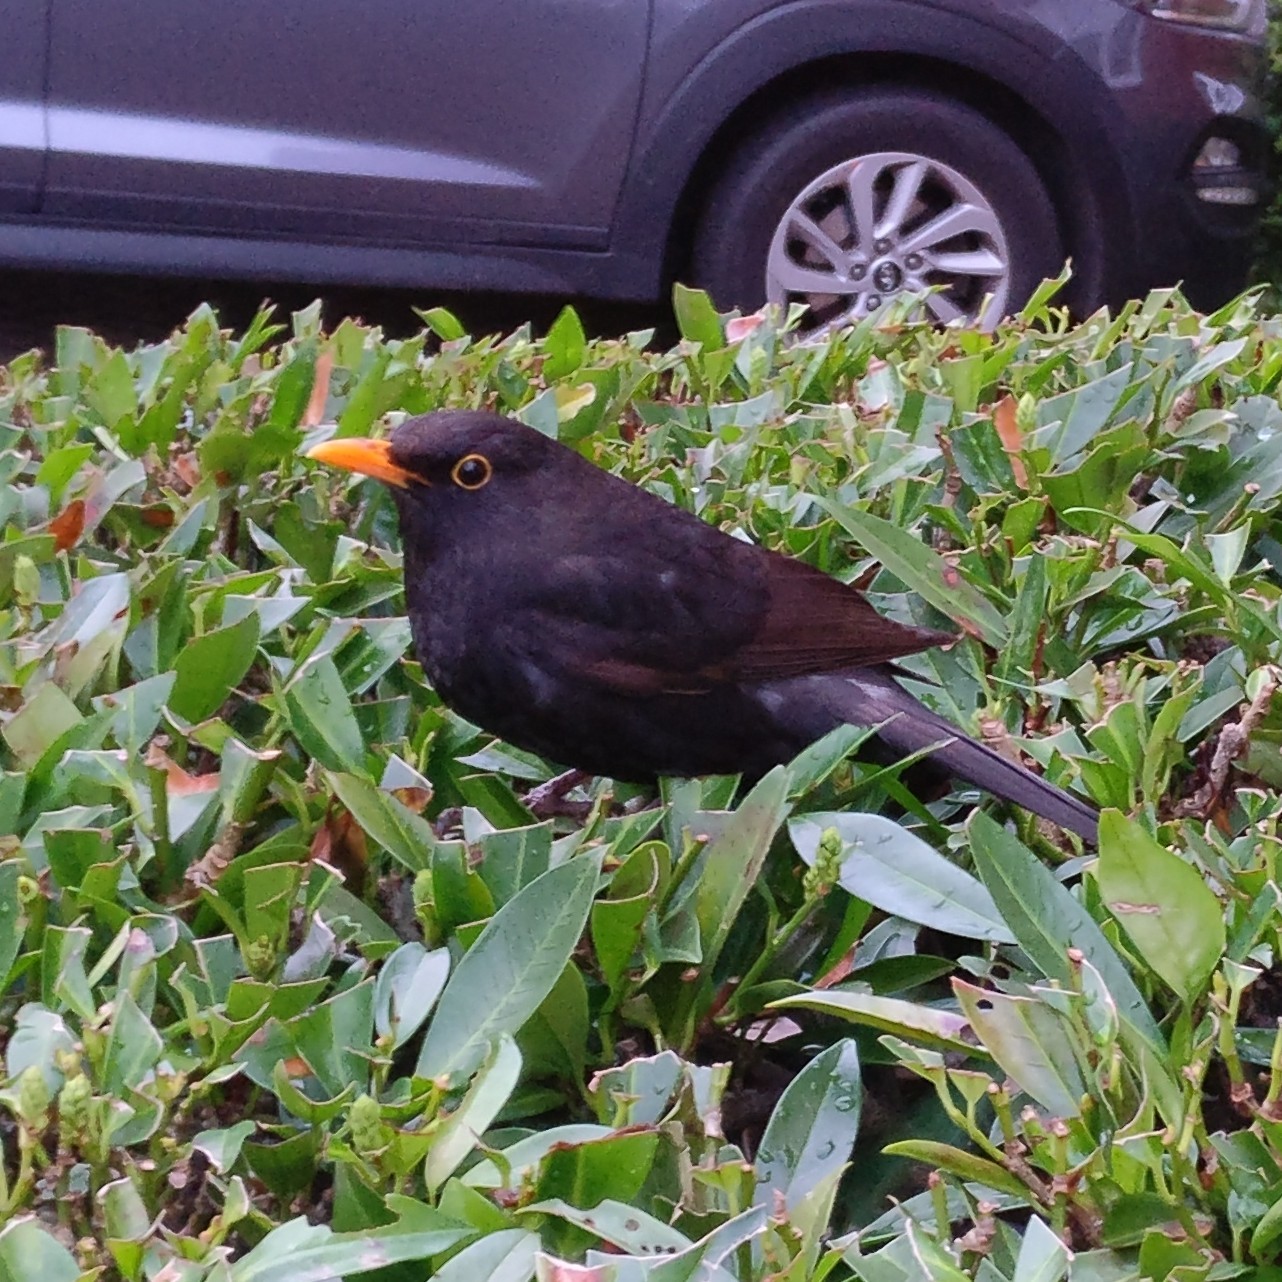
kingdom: Animalia
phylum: Chordata
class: Aves
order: Passeriformes
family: Turdidae
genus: Turdus
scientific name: Turdus merula
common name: Common blackbird
